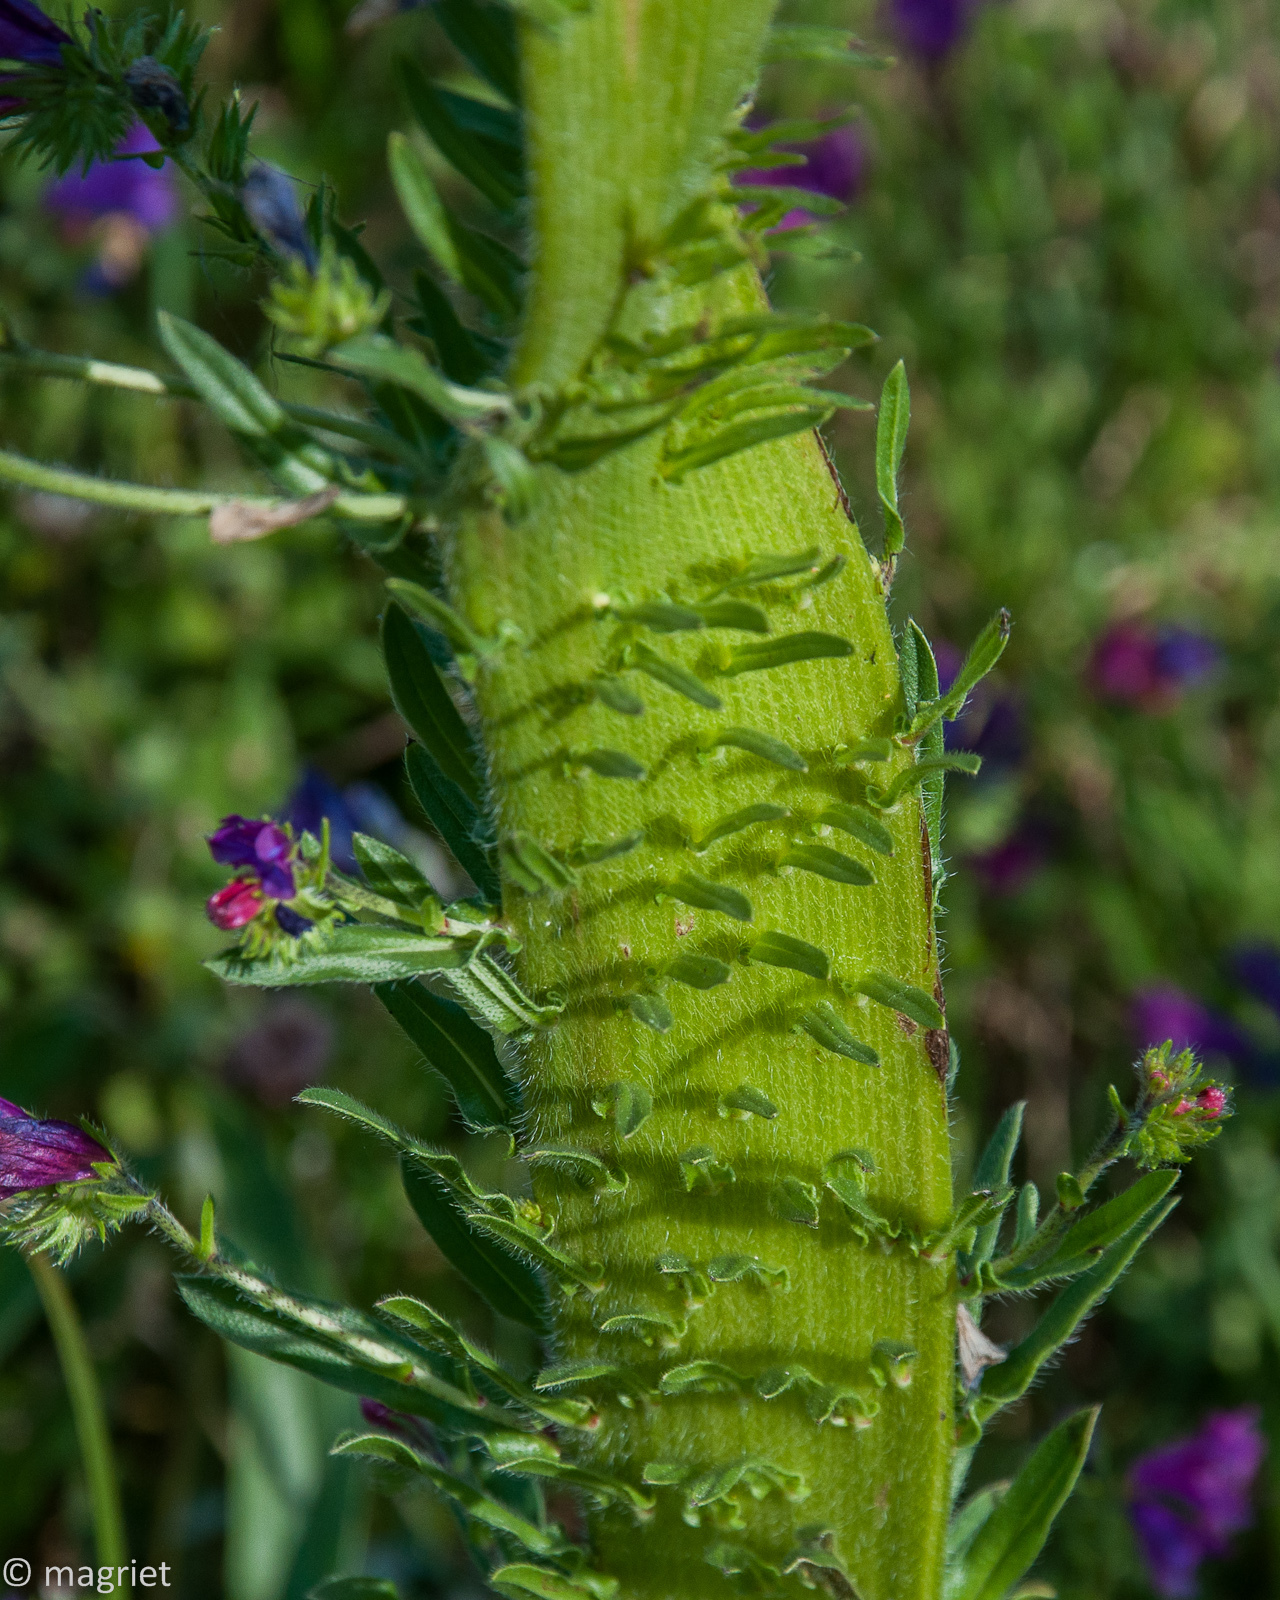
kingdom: Plantae
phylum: Tracheophyta
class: Magnoliopsida
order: Boraginales
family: Boraginaceae
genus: Echium
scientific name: Echium plantagineum
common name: Purple viper's-bugloss
